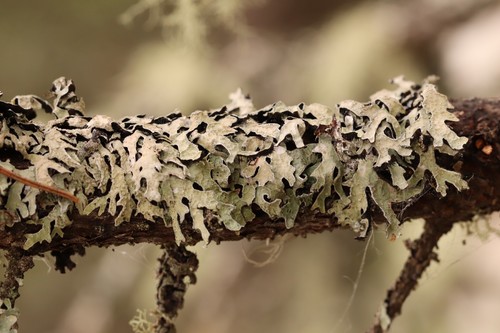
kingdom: Fungi
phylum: Ascomycota
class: Lecanoromycetes
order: Lecanorales
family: Parmeliaceae
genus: Parmelia
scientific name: Parmelia sulcata
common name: Netted shield lichen
